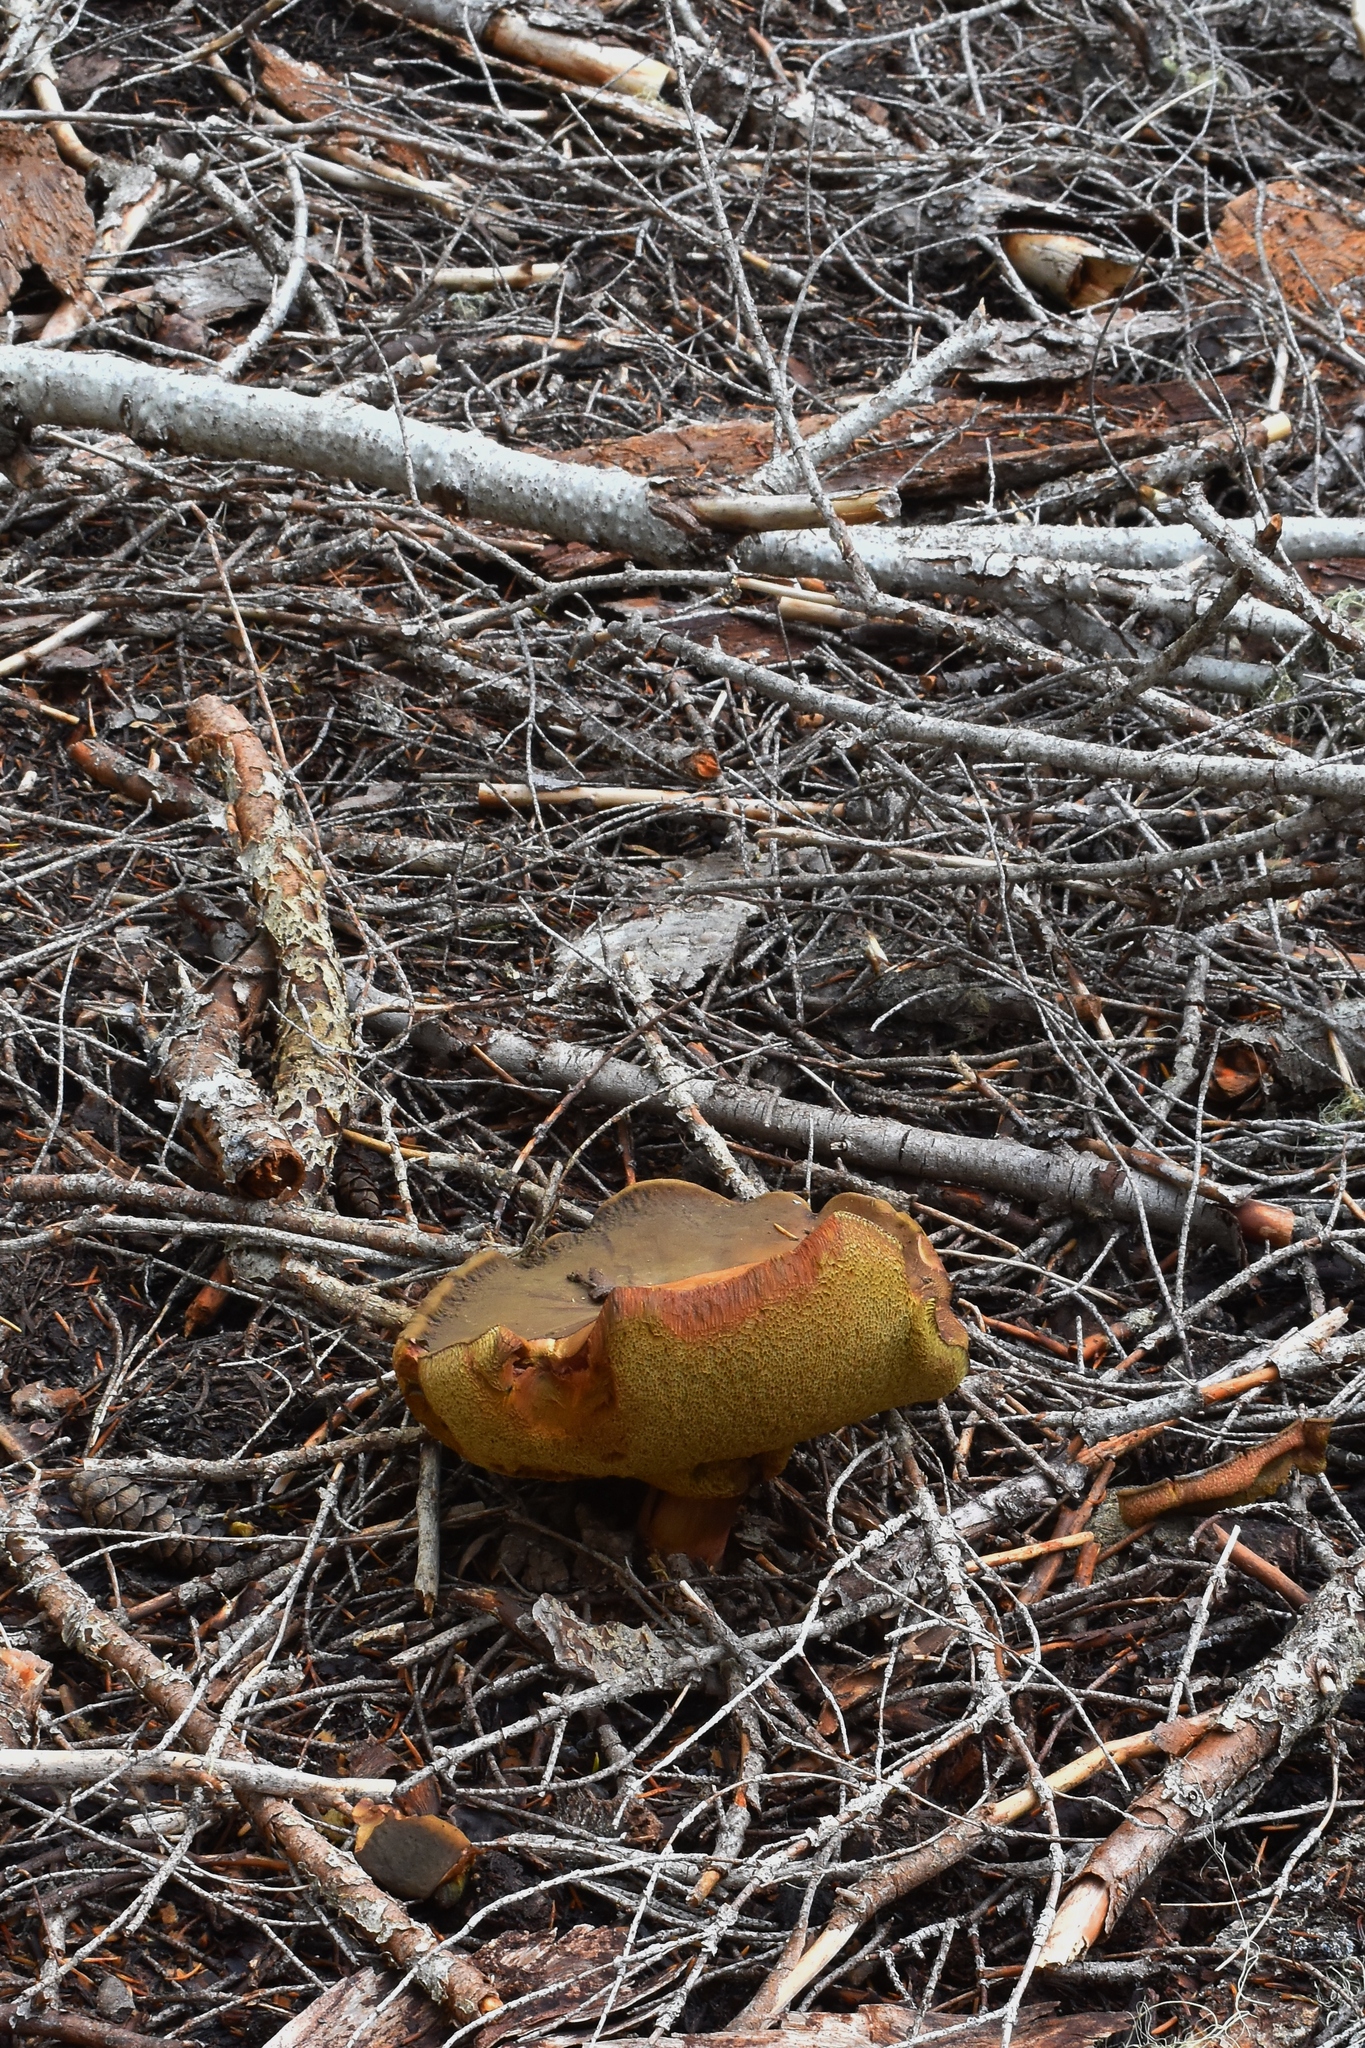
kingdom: Fungi
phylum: Basidiomycota
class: Agaricomycetes
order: Boletales
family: Boletaceae
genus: Boletus
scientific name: Boletus fibrillosus
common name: Fib king
